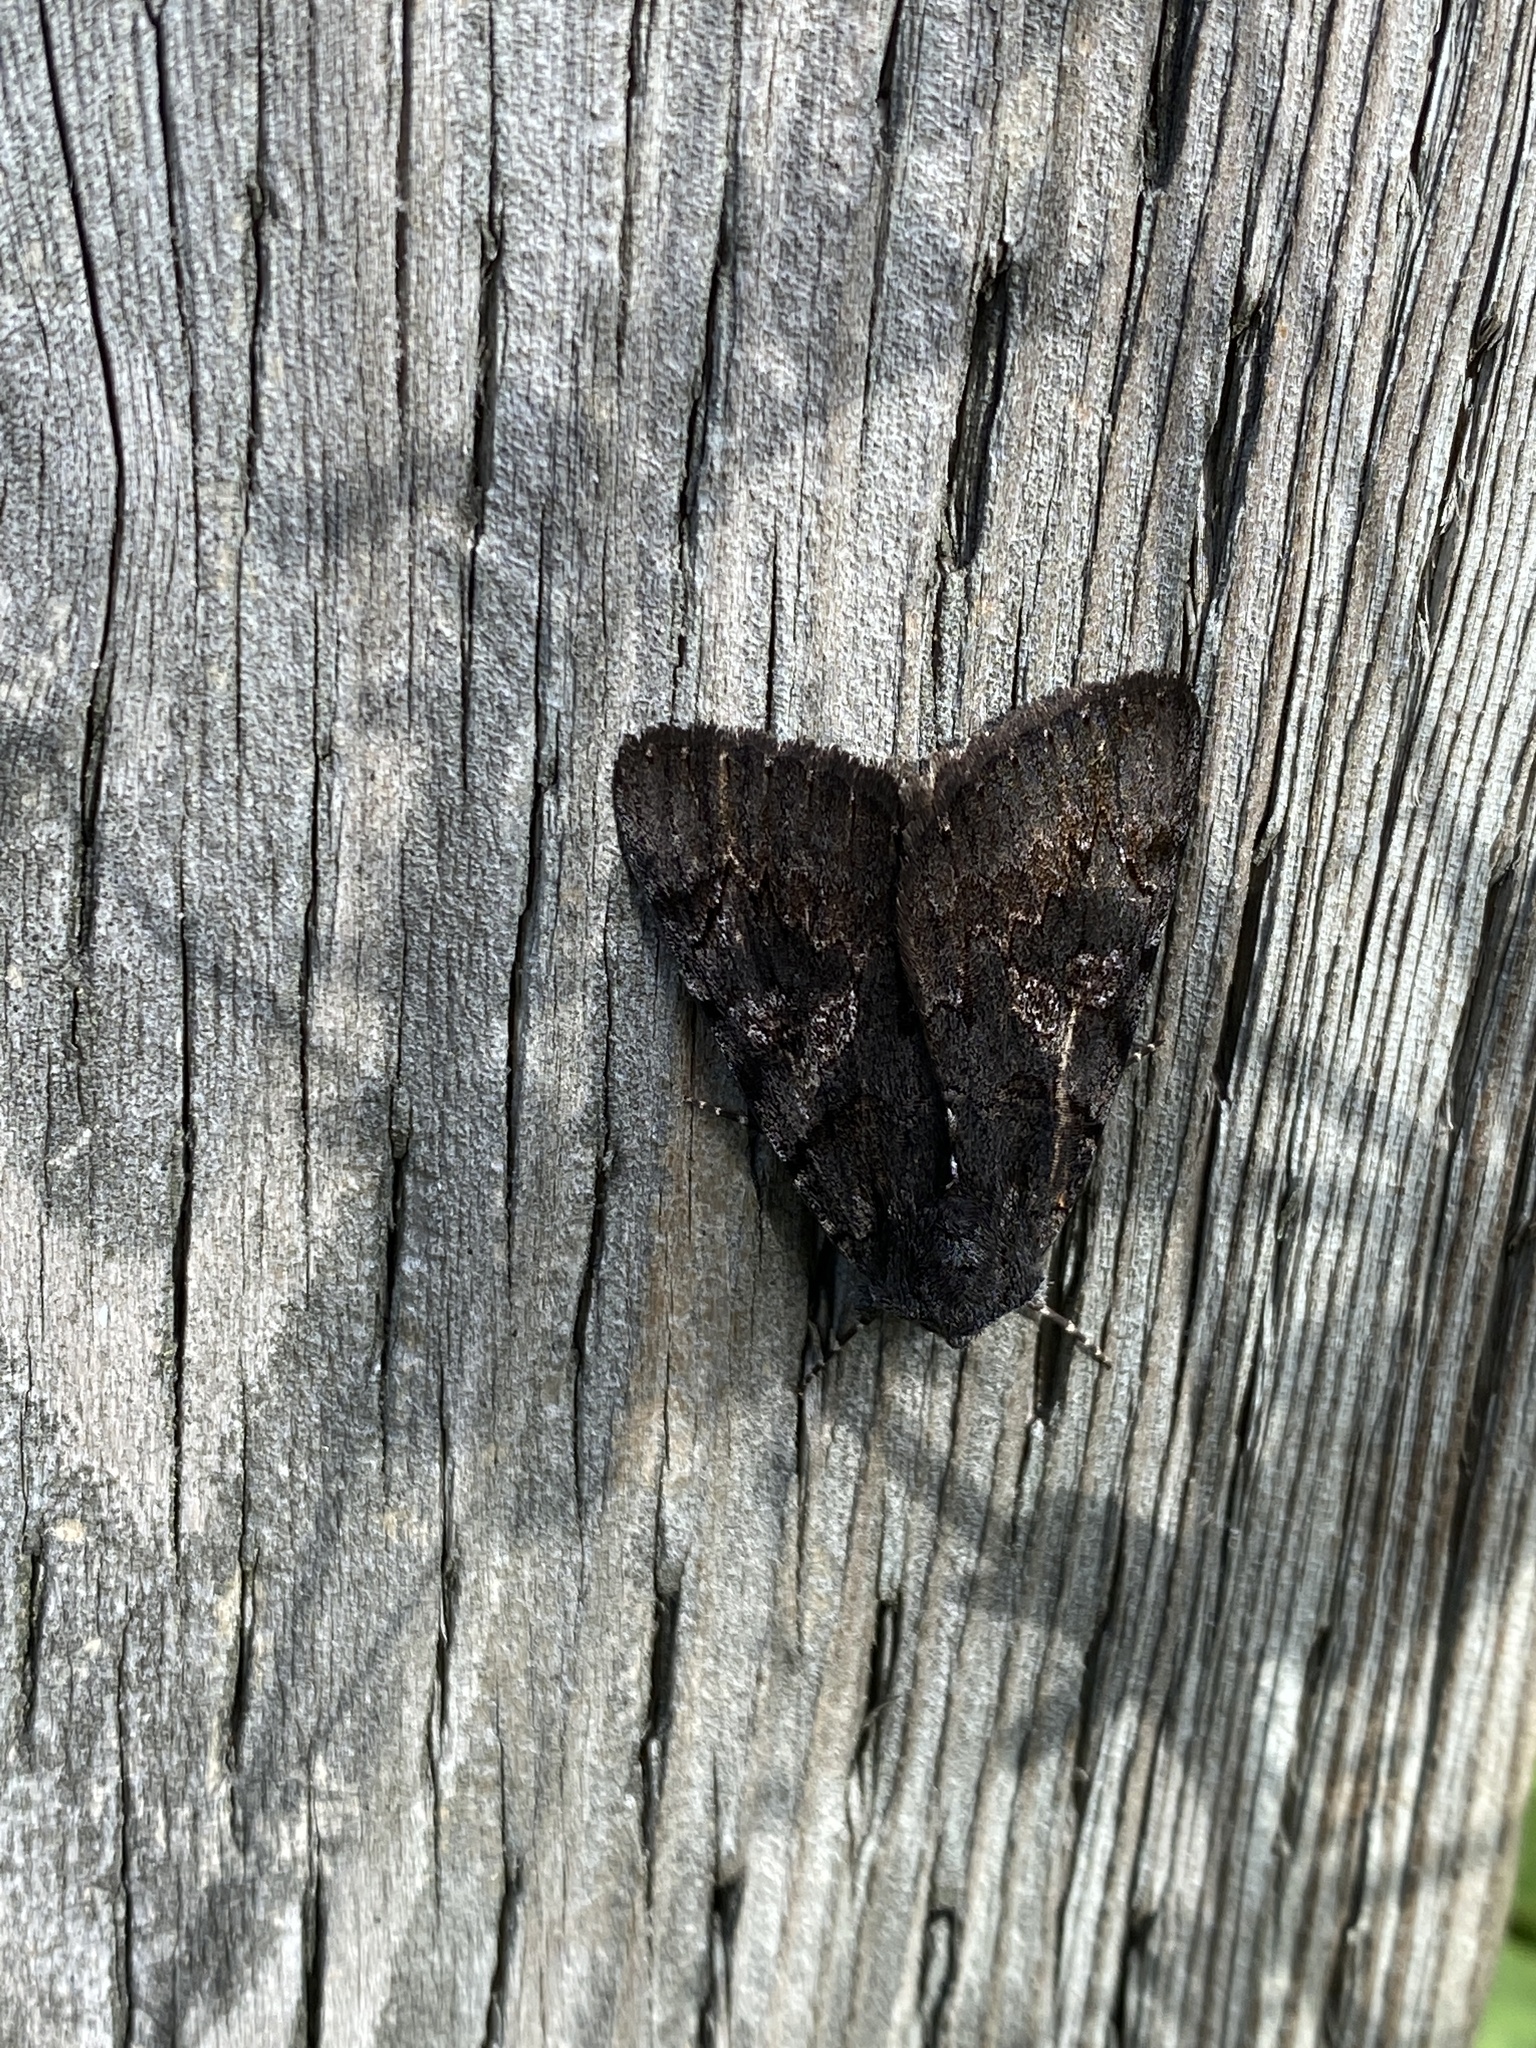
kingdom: Animalia
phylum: Arthropoda
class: Insecta
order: Lepidoptera
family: Erebidae
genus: Catocala
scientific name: Catocala antinympha
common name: Sweetfern underwing
